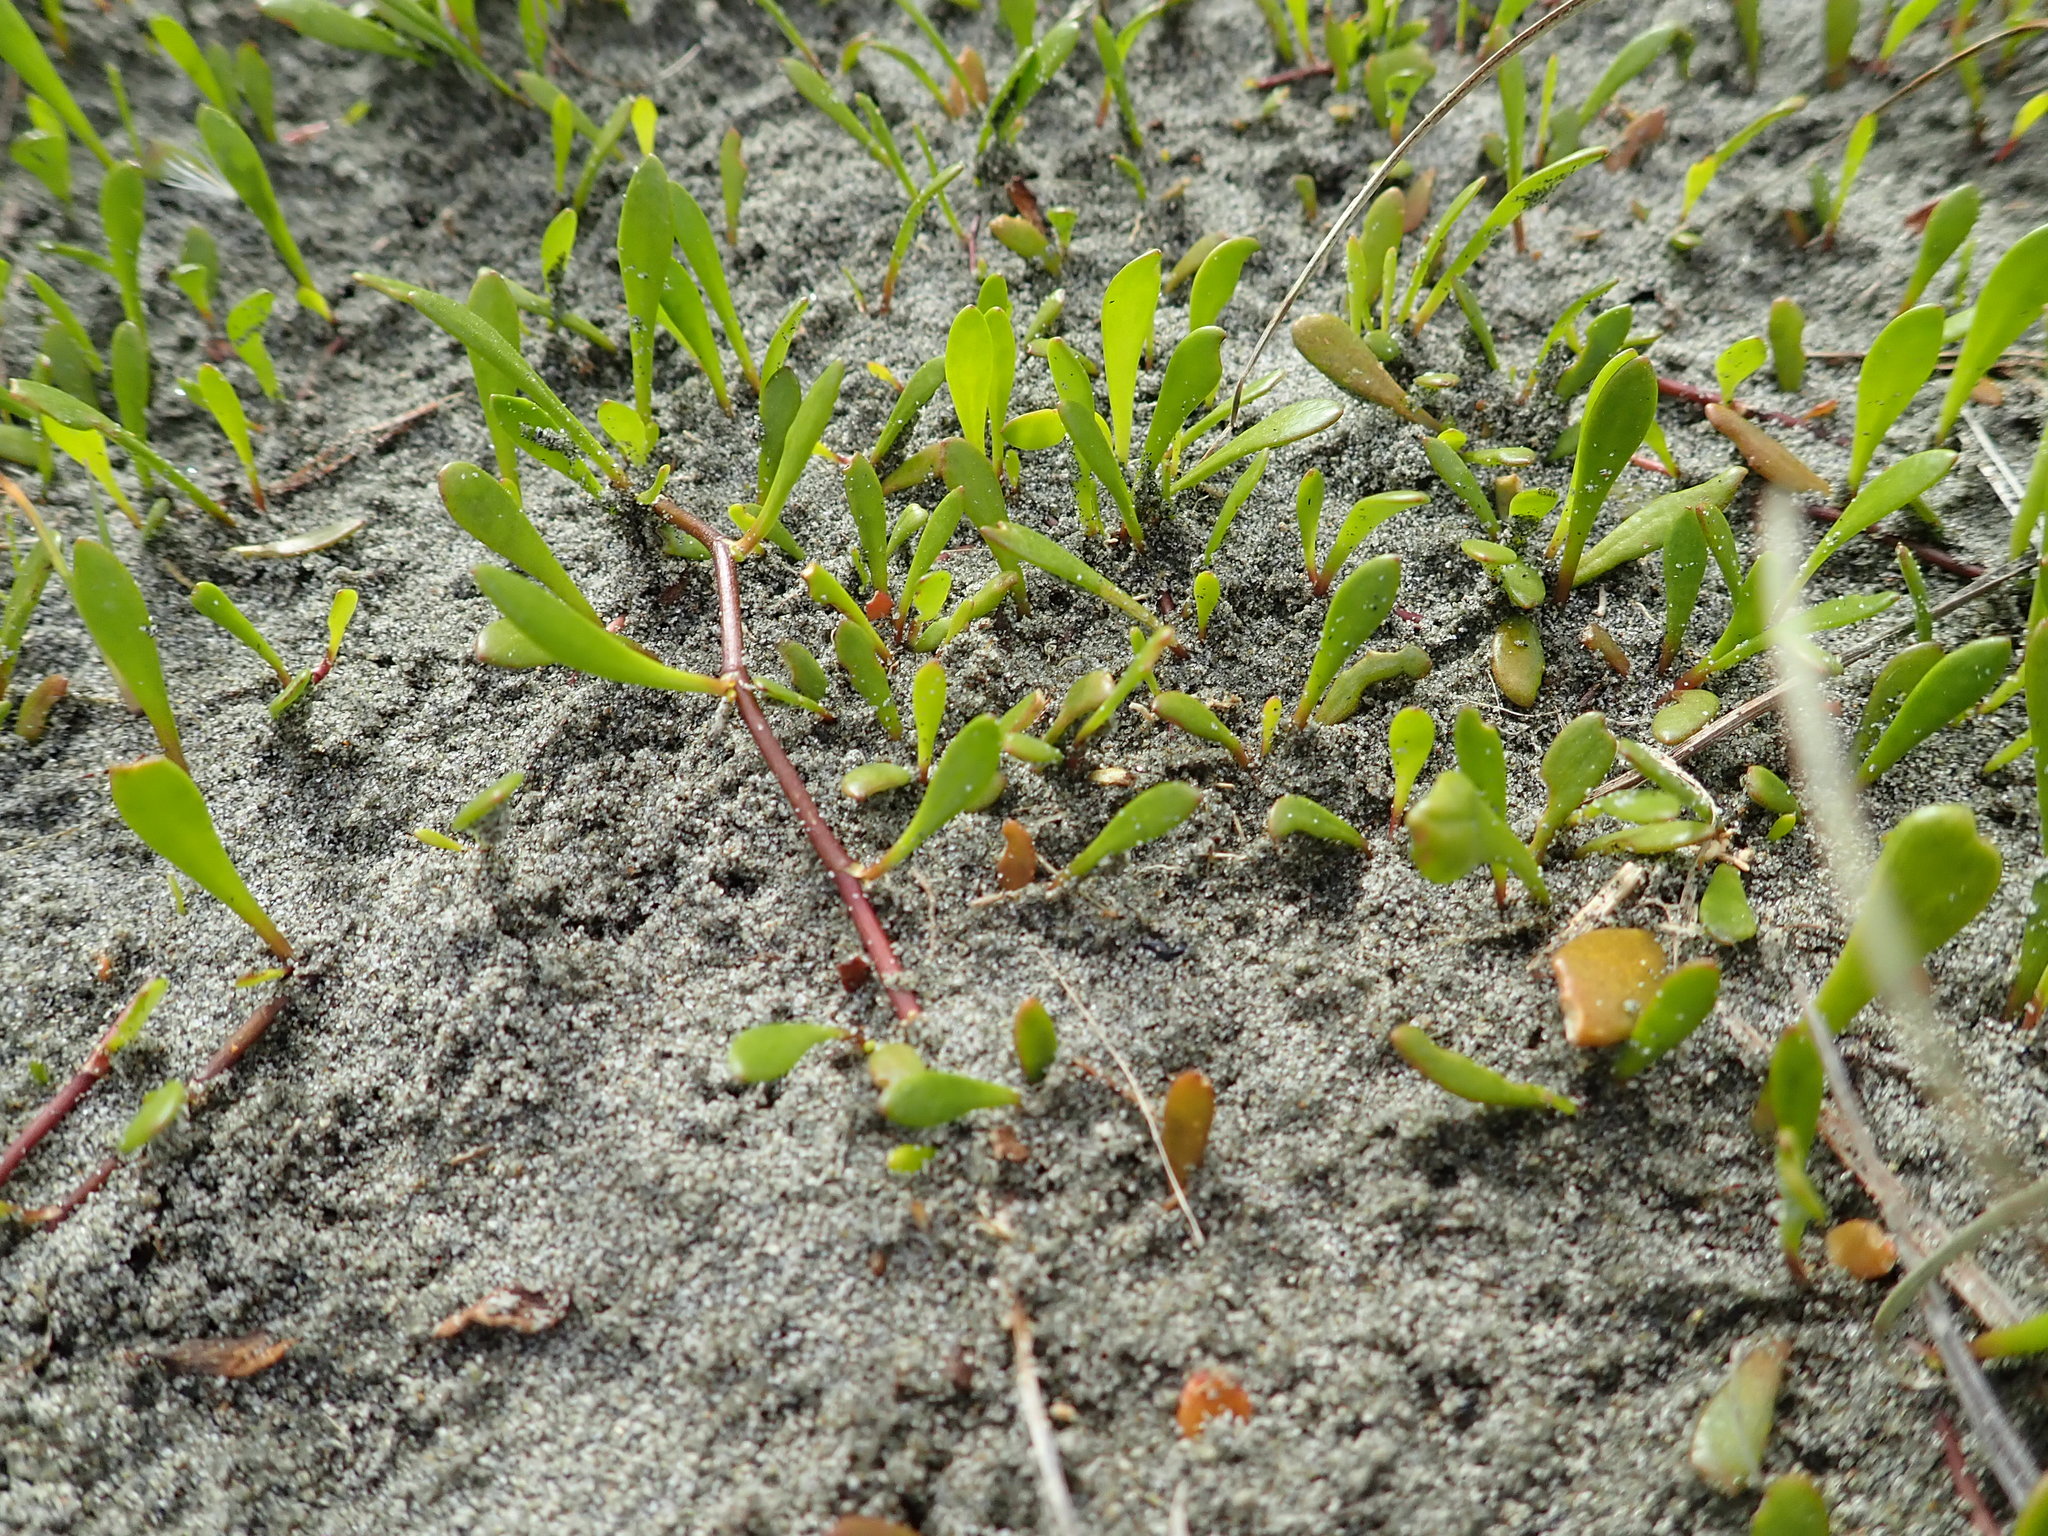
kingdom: Plantae
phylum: Tracheophyta
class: Magnoliopsida
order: Asterales
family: Goodeniaceae
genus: Goodenia
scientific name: Goodenia radicans
